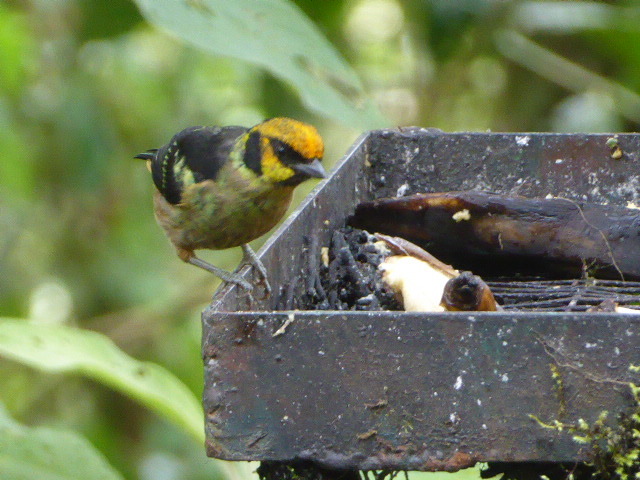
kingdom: Animalia
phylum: Chordata
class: Aves
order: Passeriformes
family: Thraupidae
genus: Tangara
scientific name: Tangara parzudakii
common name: Flame-faced tanager
